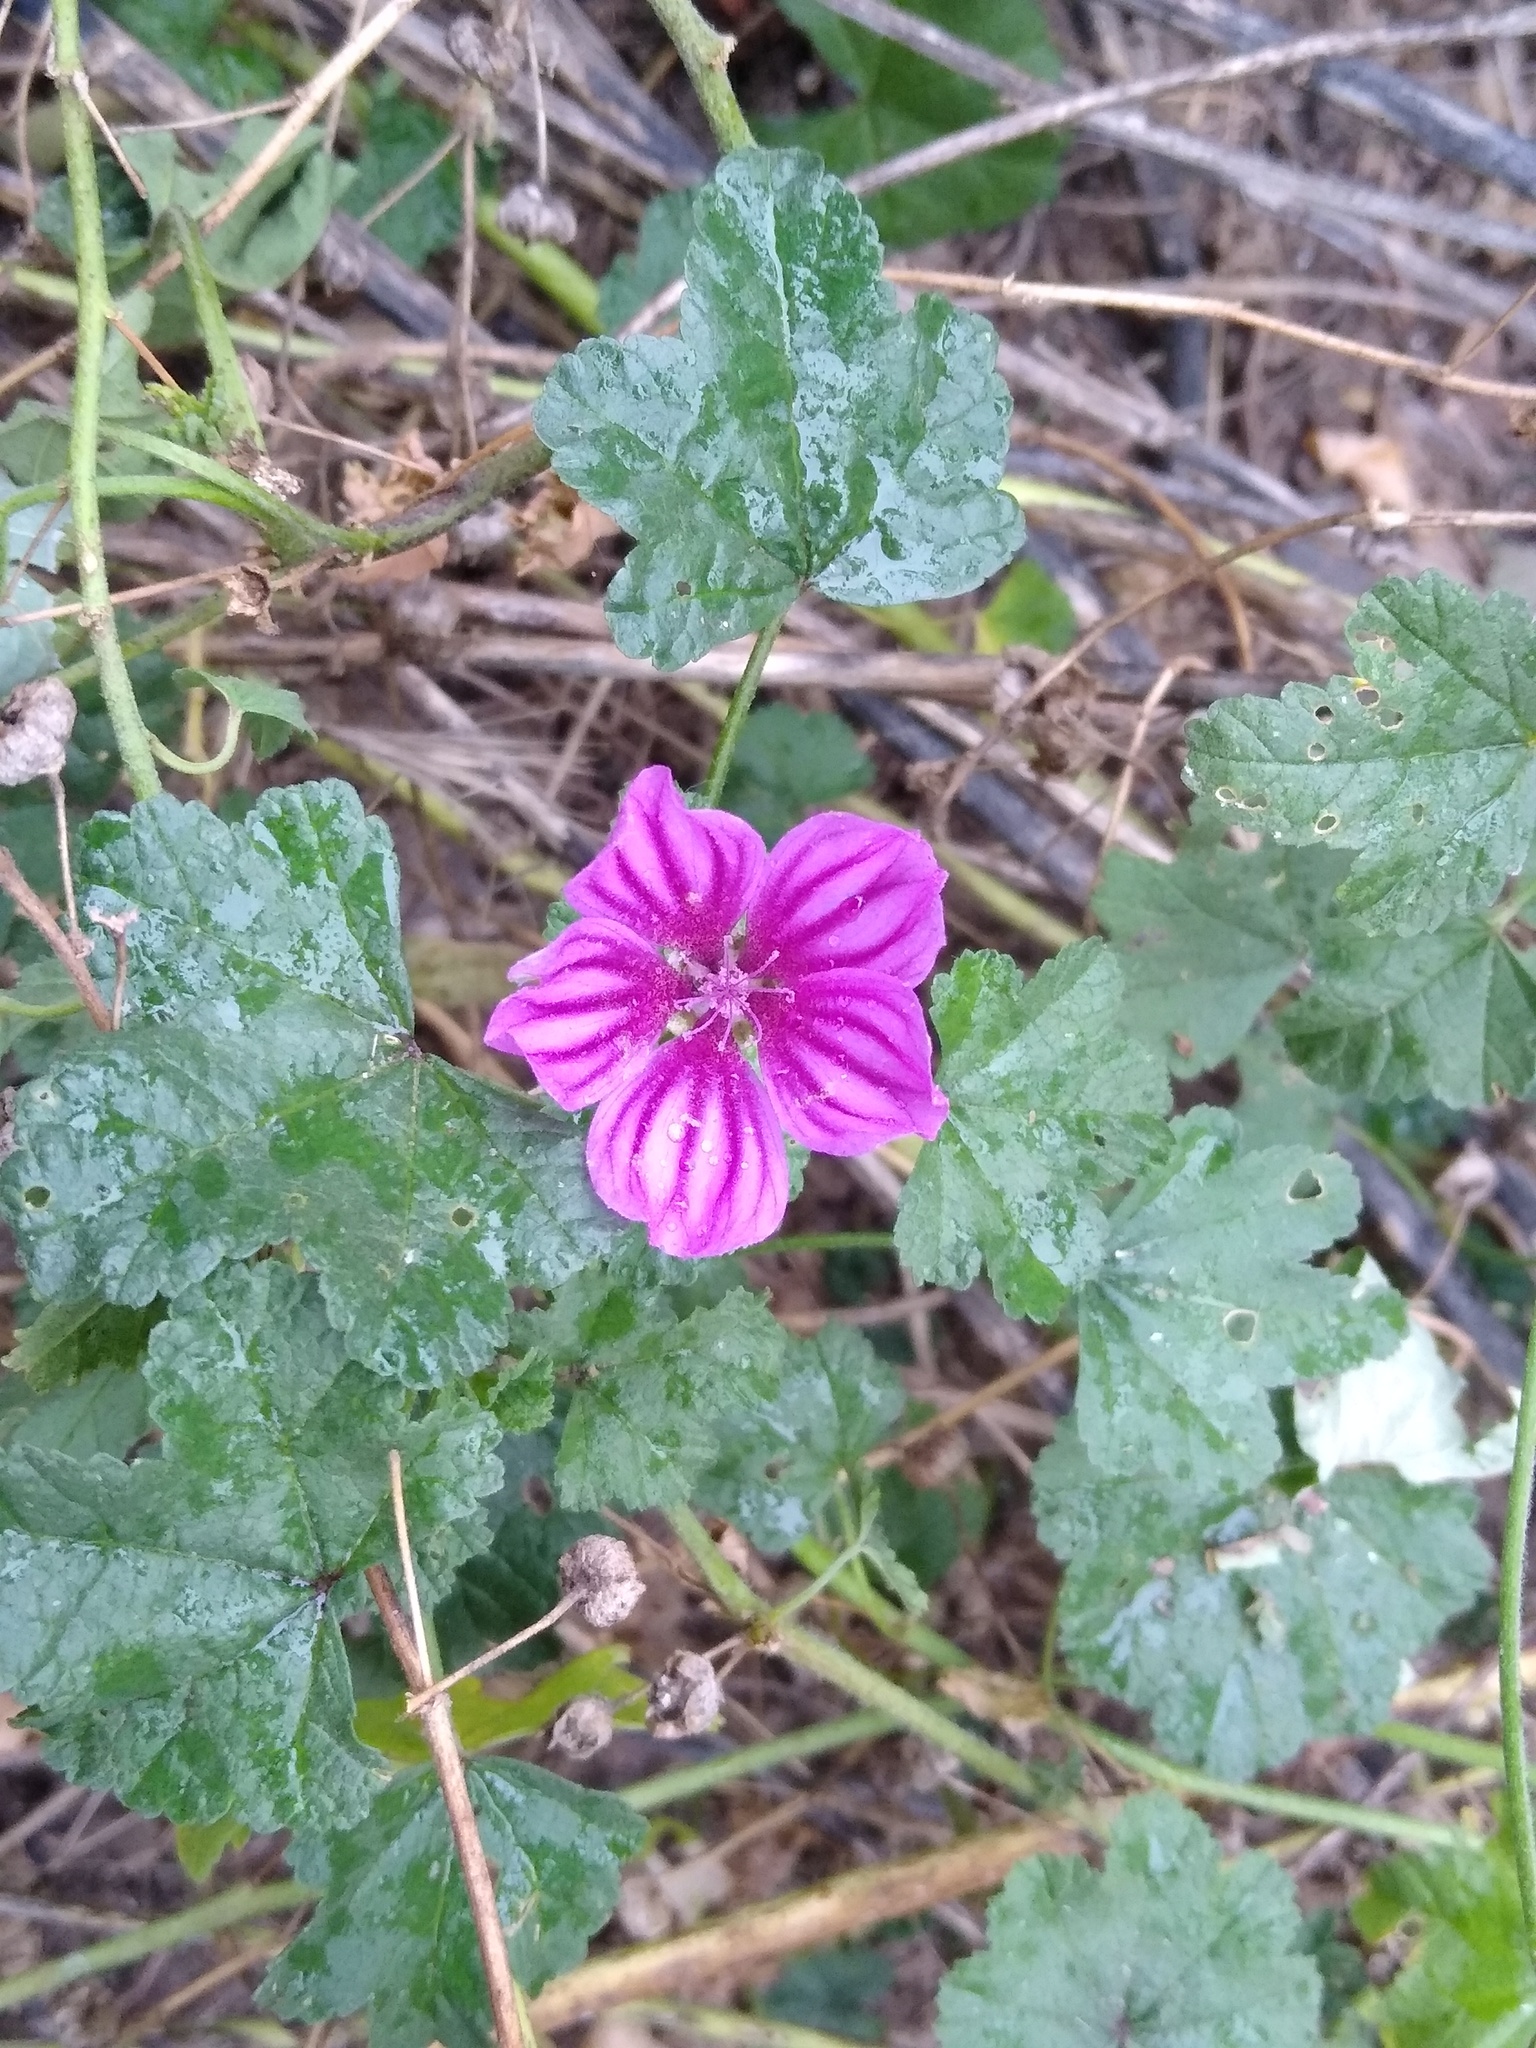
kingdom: Plantae
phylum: Tracheophyta
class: Magnoliopsida
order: Malvales
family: Malvaceae
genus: Malva
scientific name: Malva sylvestris
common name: Common mallow
